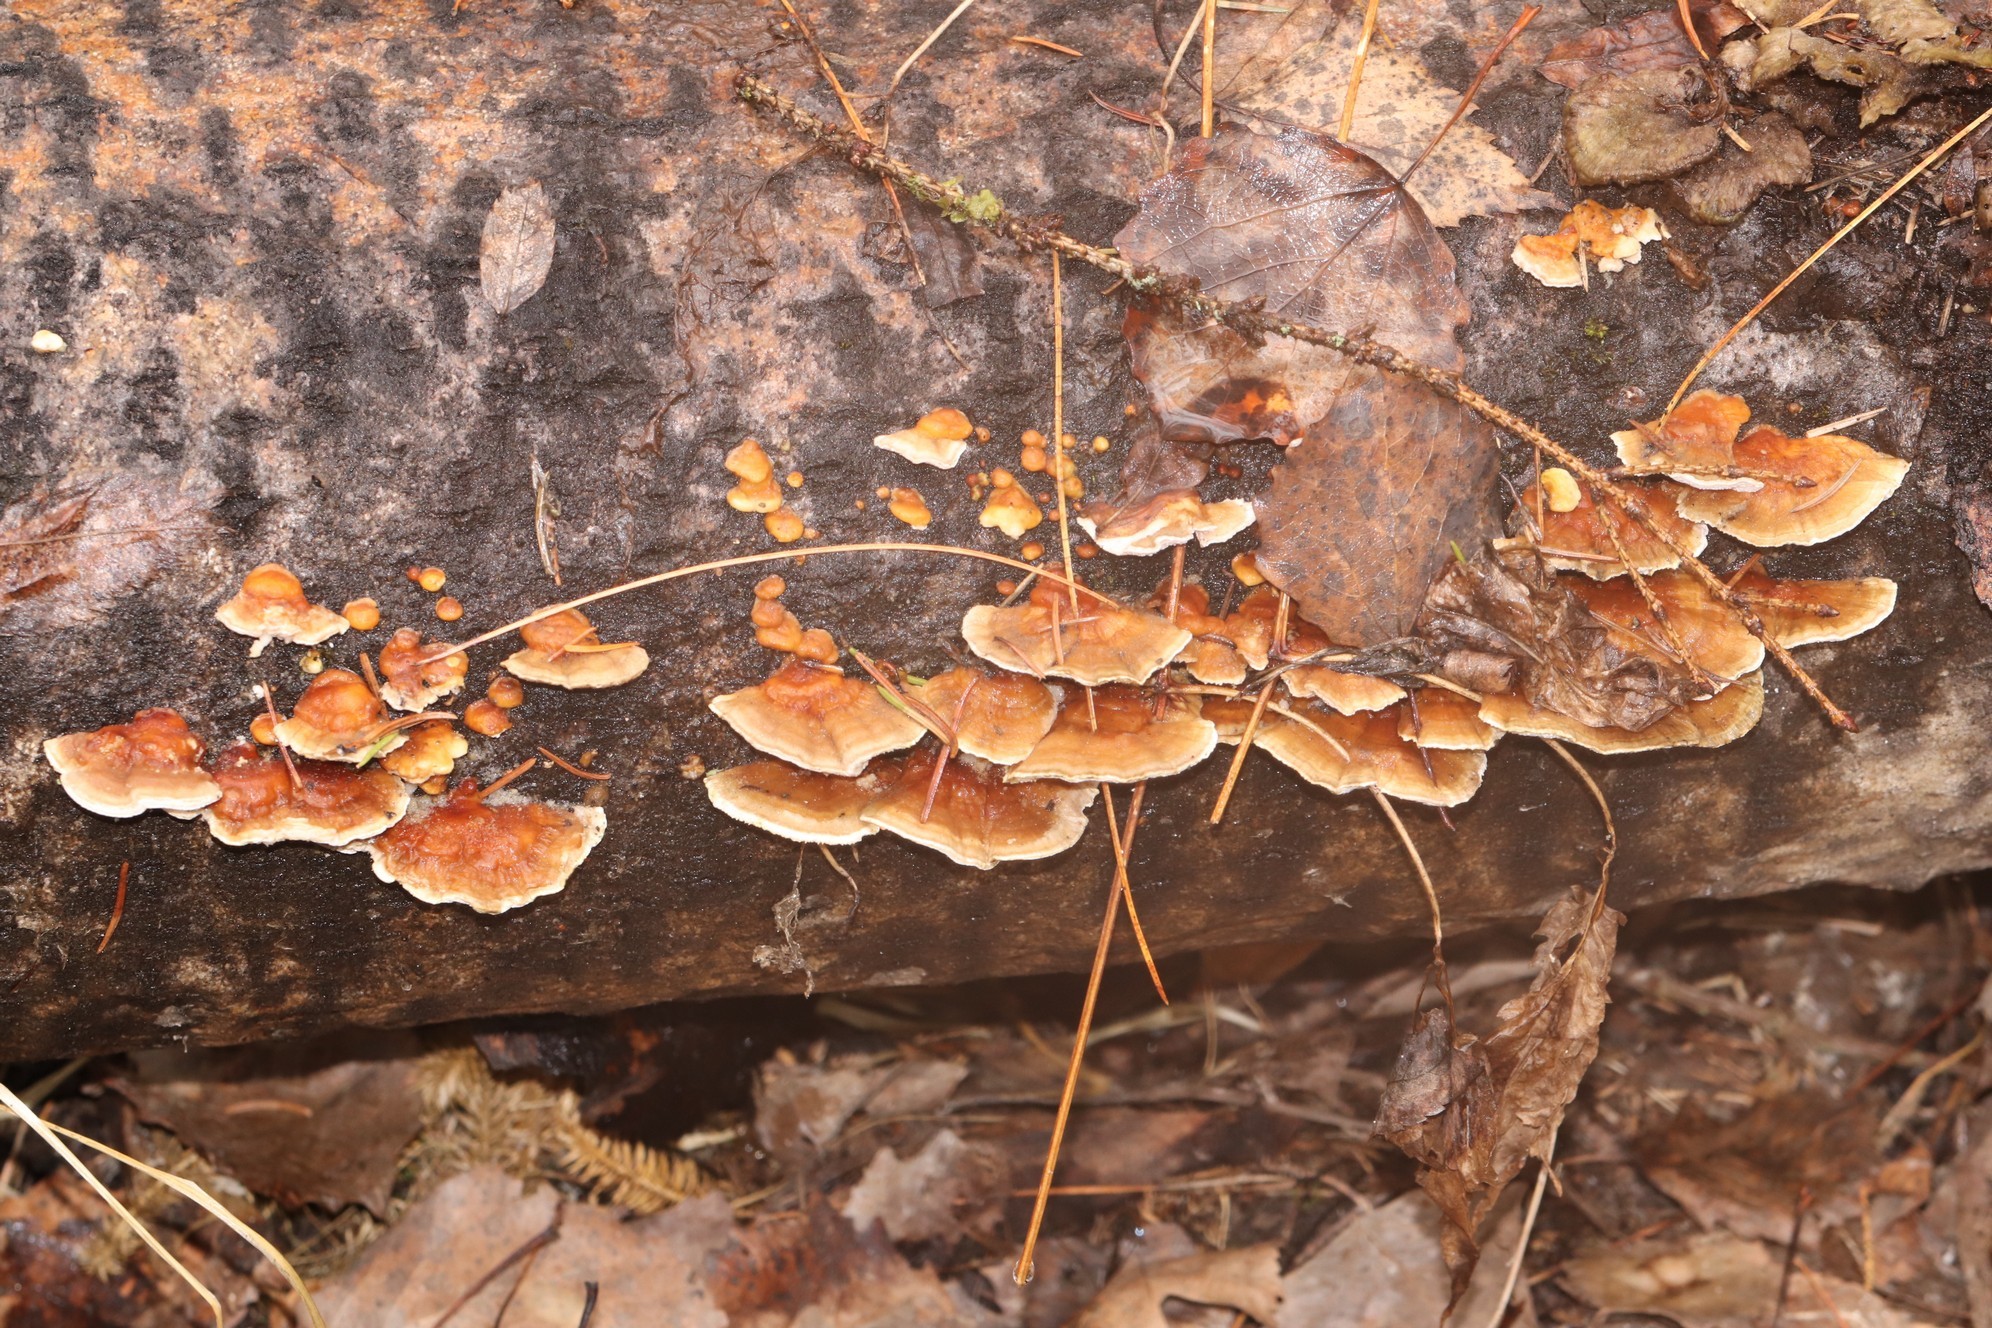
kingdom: Fungi
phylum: Basidiomycota
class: Agaricomycetes
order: Polyporales
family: Polyporaceae
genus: Trametes
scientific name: Trametes ochracea
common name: Ochre bracket
